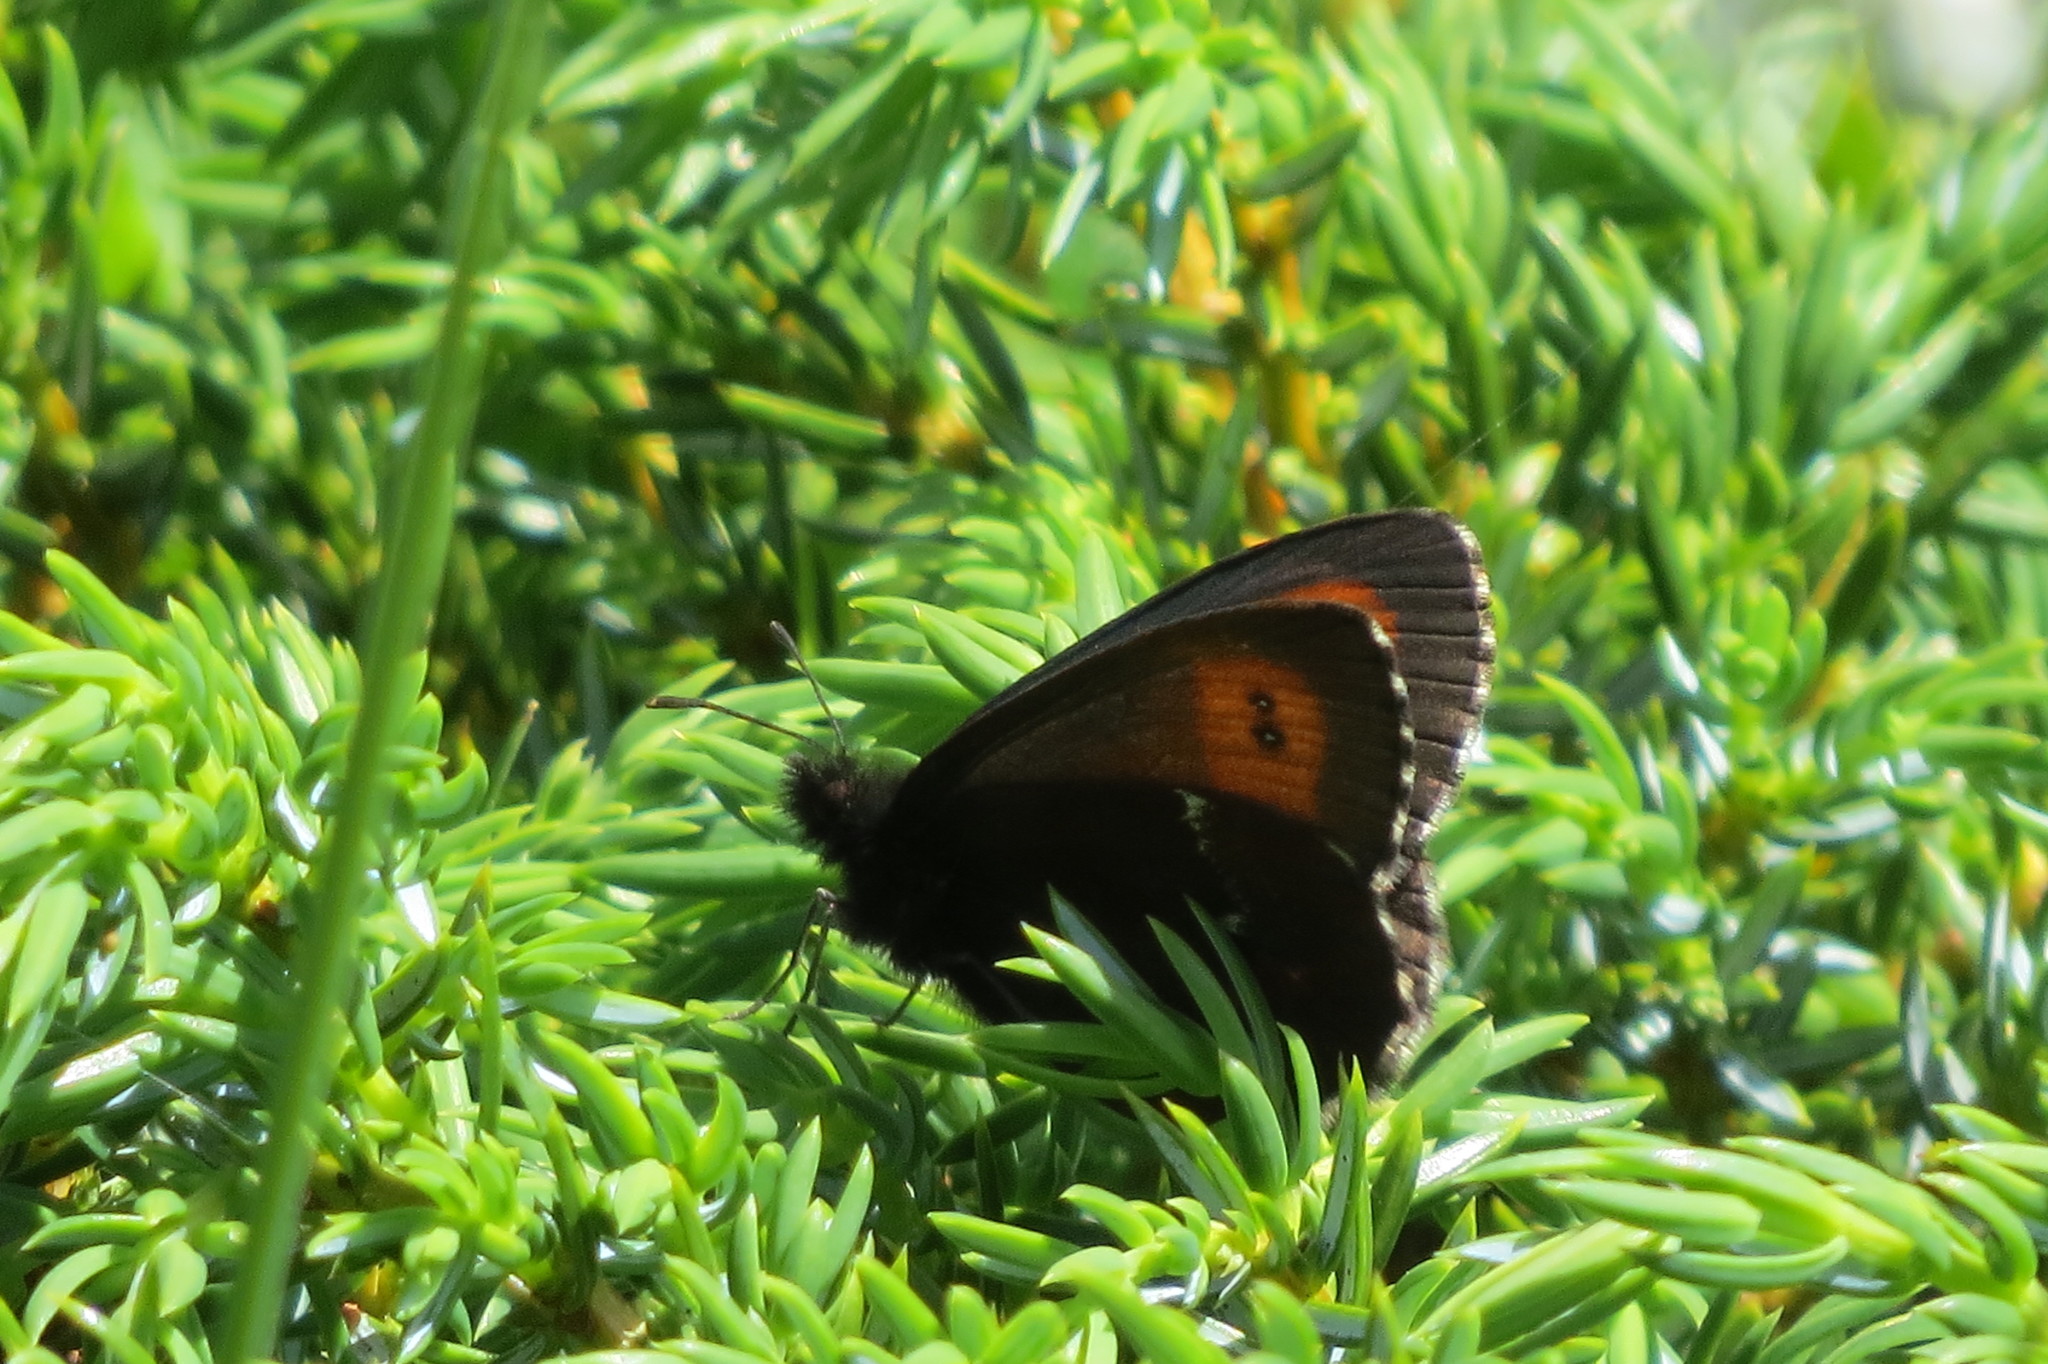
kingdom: Animalia
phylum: Arthropoda
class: Insecta
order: Lepidoptera
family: Nymphalidae
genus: Erebia
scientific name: Erebia euryale
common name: Large ringlet
